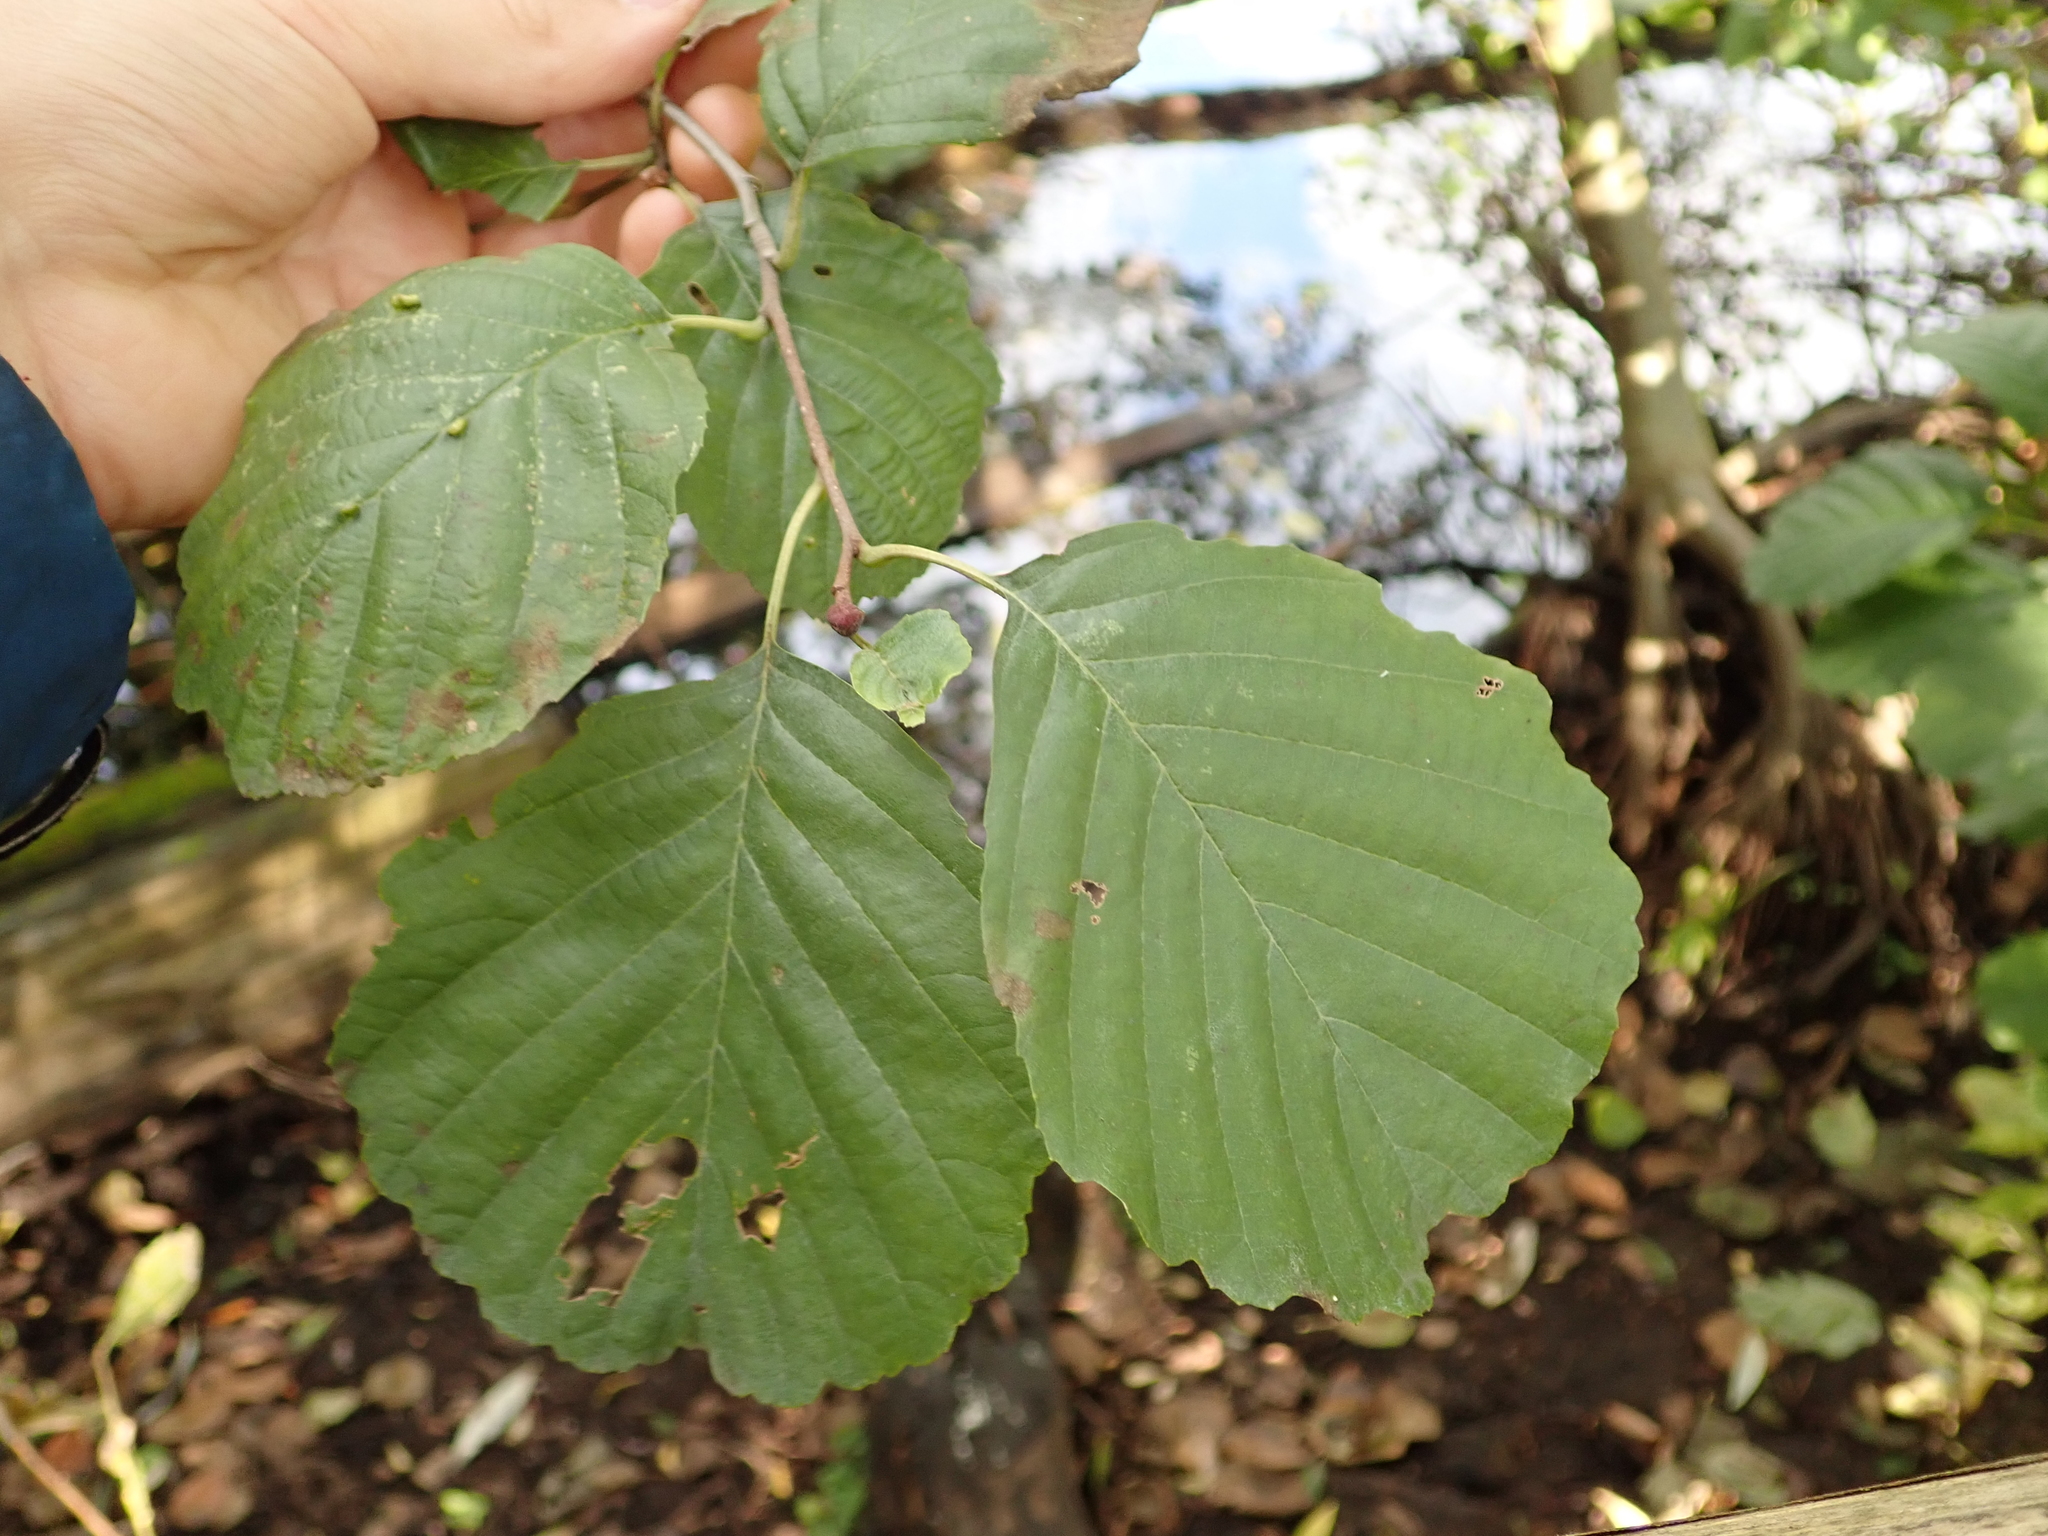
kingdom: Plantae
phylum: Tracheophyta
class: Magnoliopsida
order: Fagales
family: Betulaceae
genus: Alnus
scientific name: Alnus glutinosa
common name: Black alder
